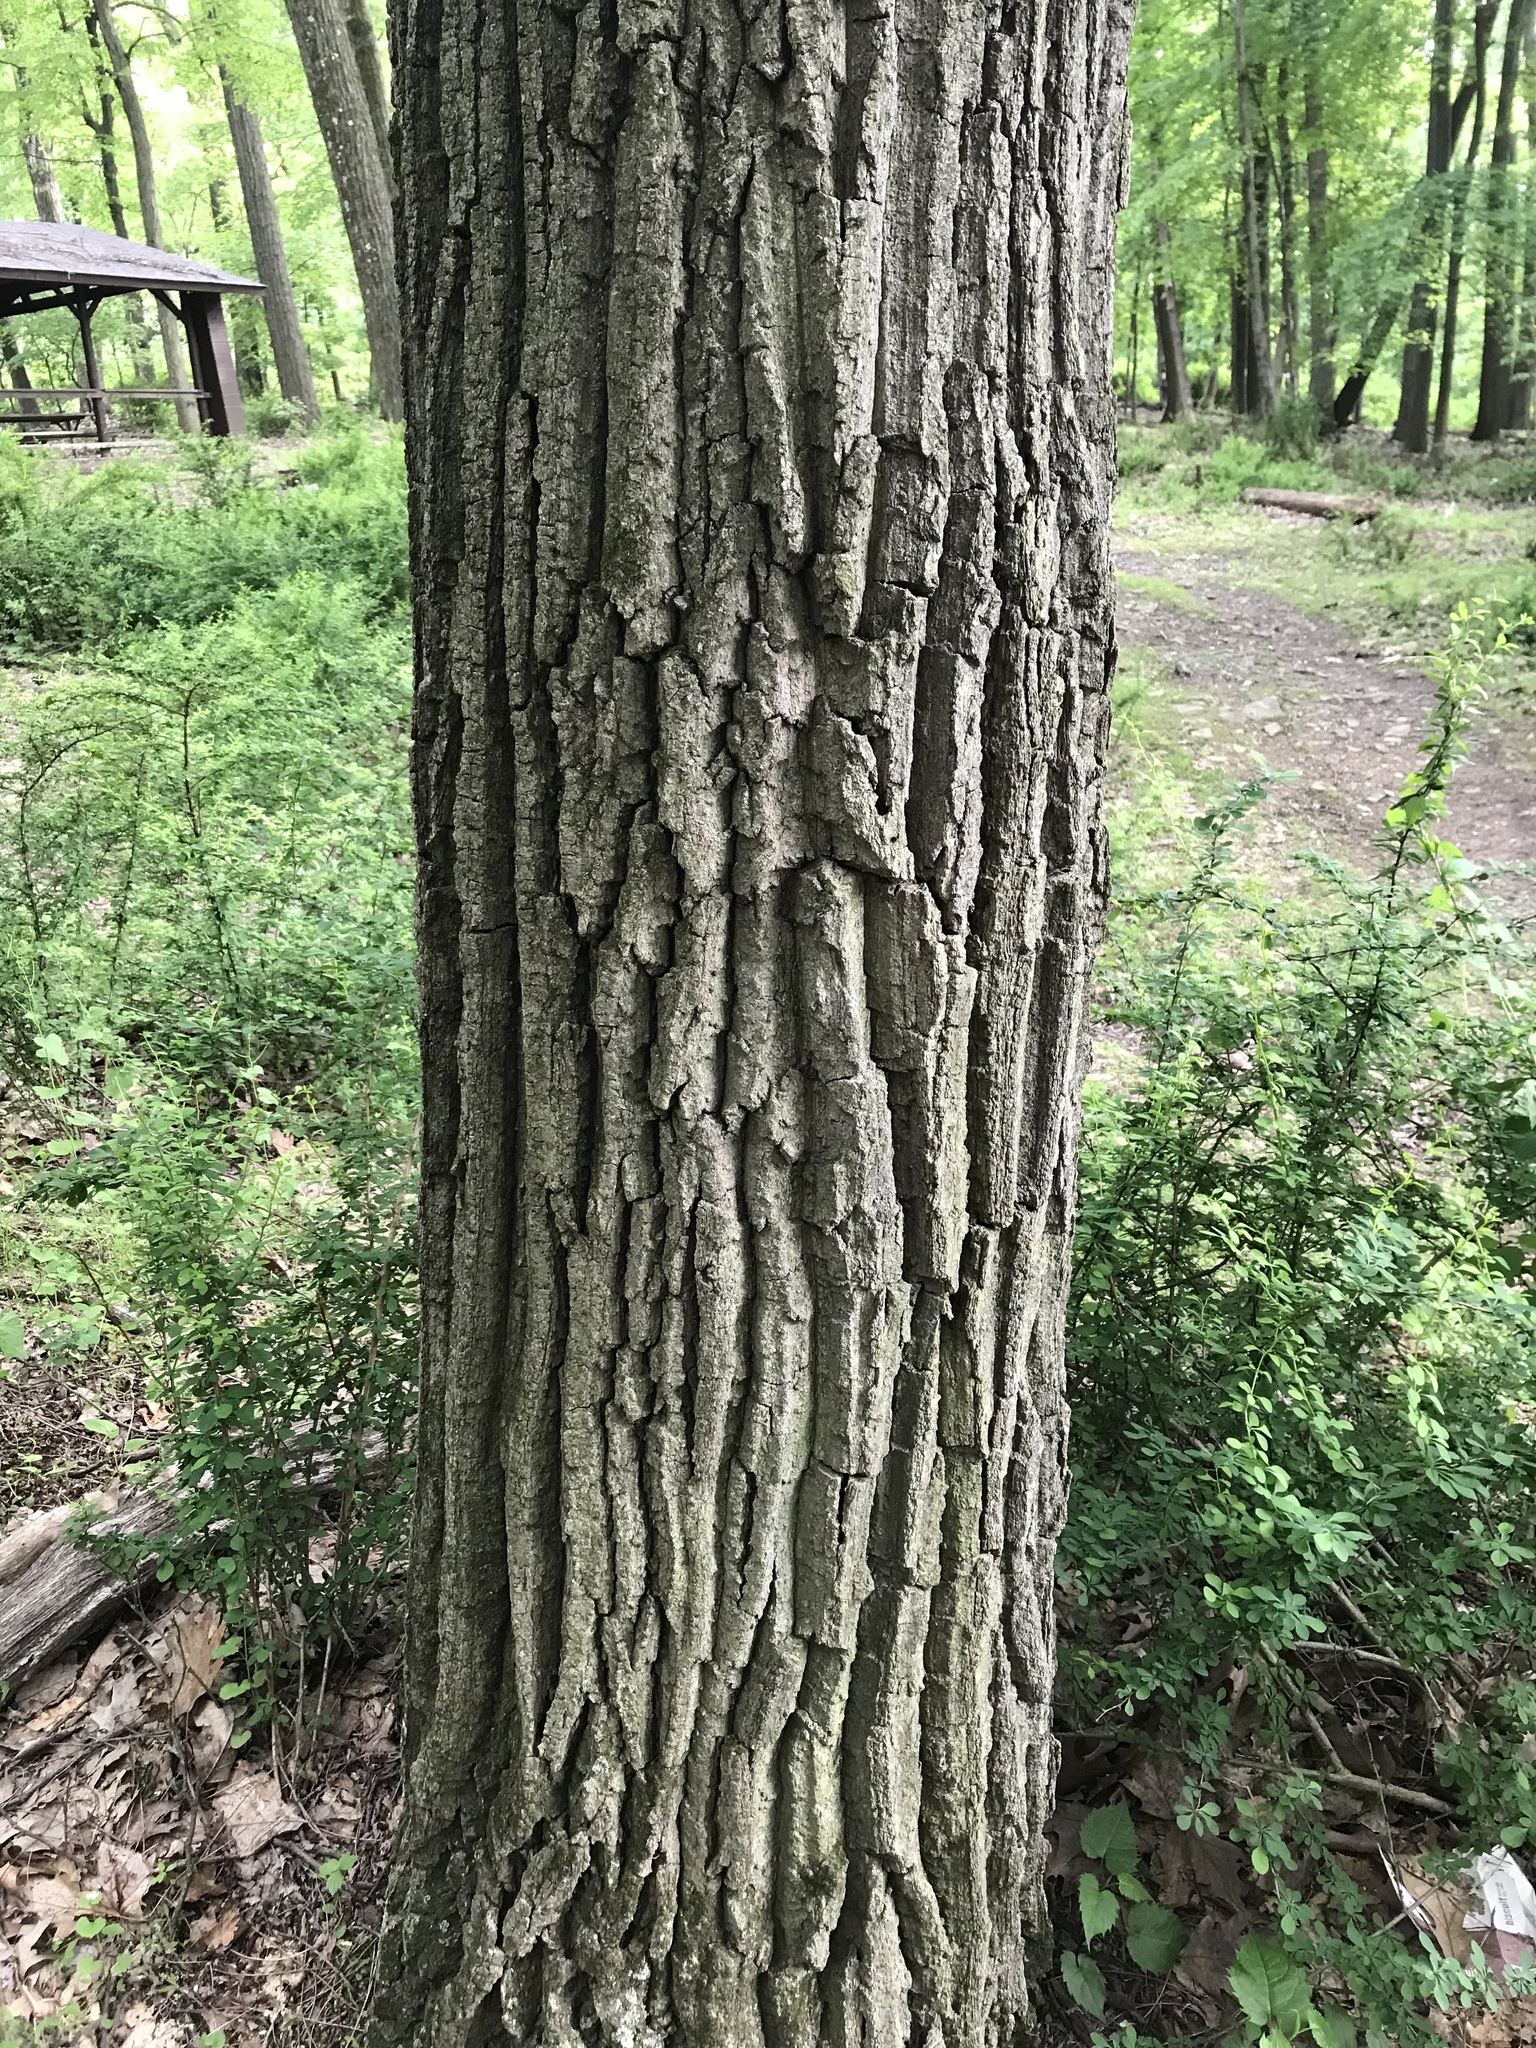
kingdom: Plantae
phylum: Tracheophyta
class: Magnoliopsida
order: Fagales
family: Fagaceae
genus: Quercus
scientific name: Quercus montana
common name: Chestnut oak
